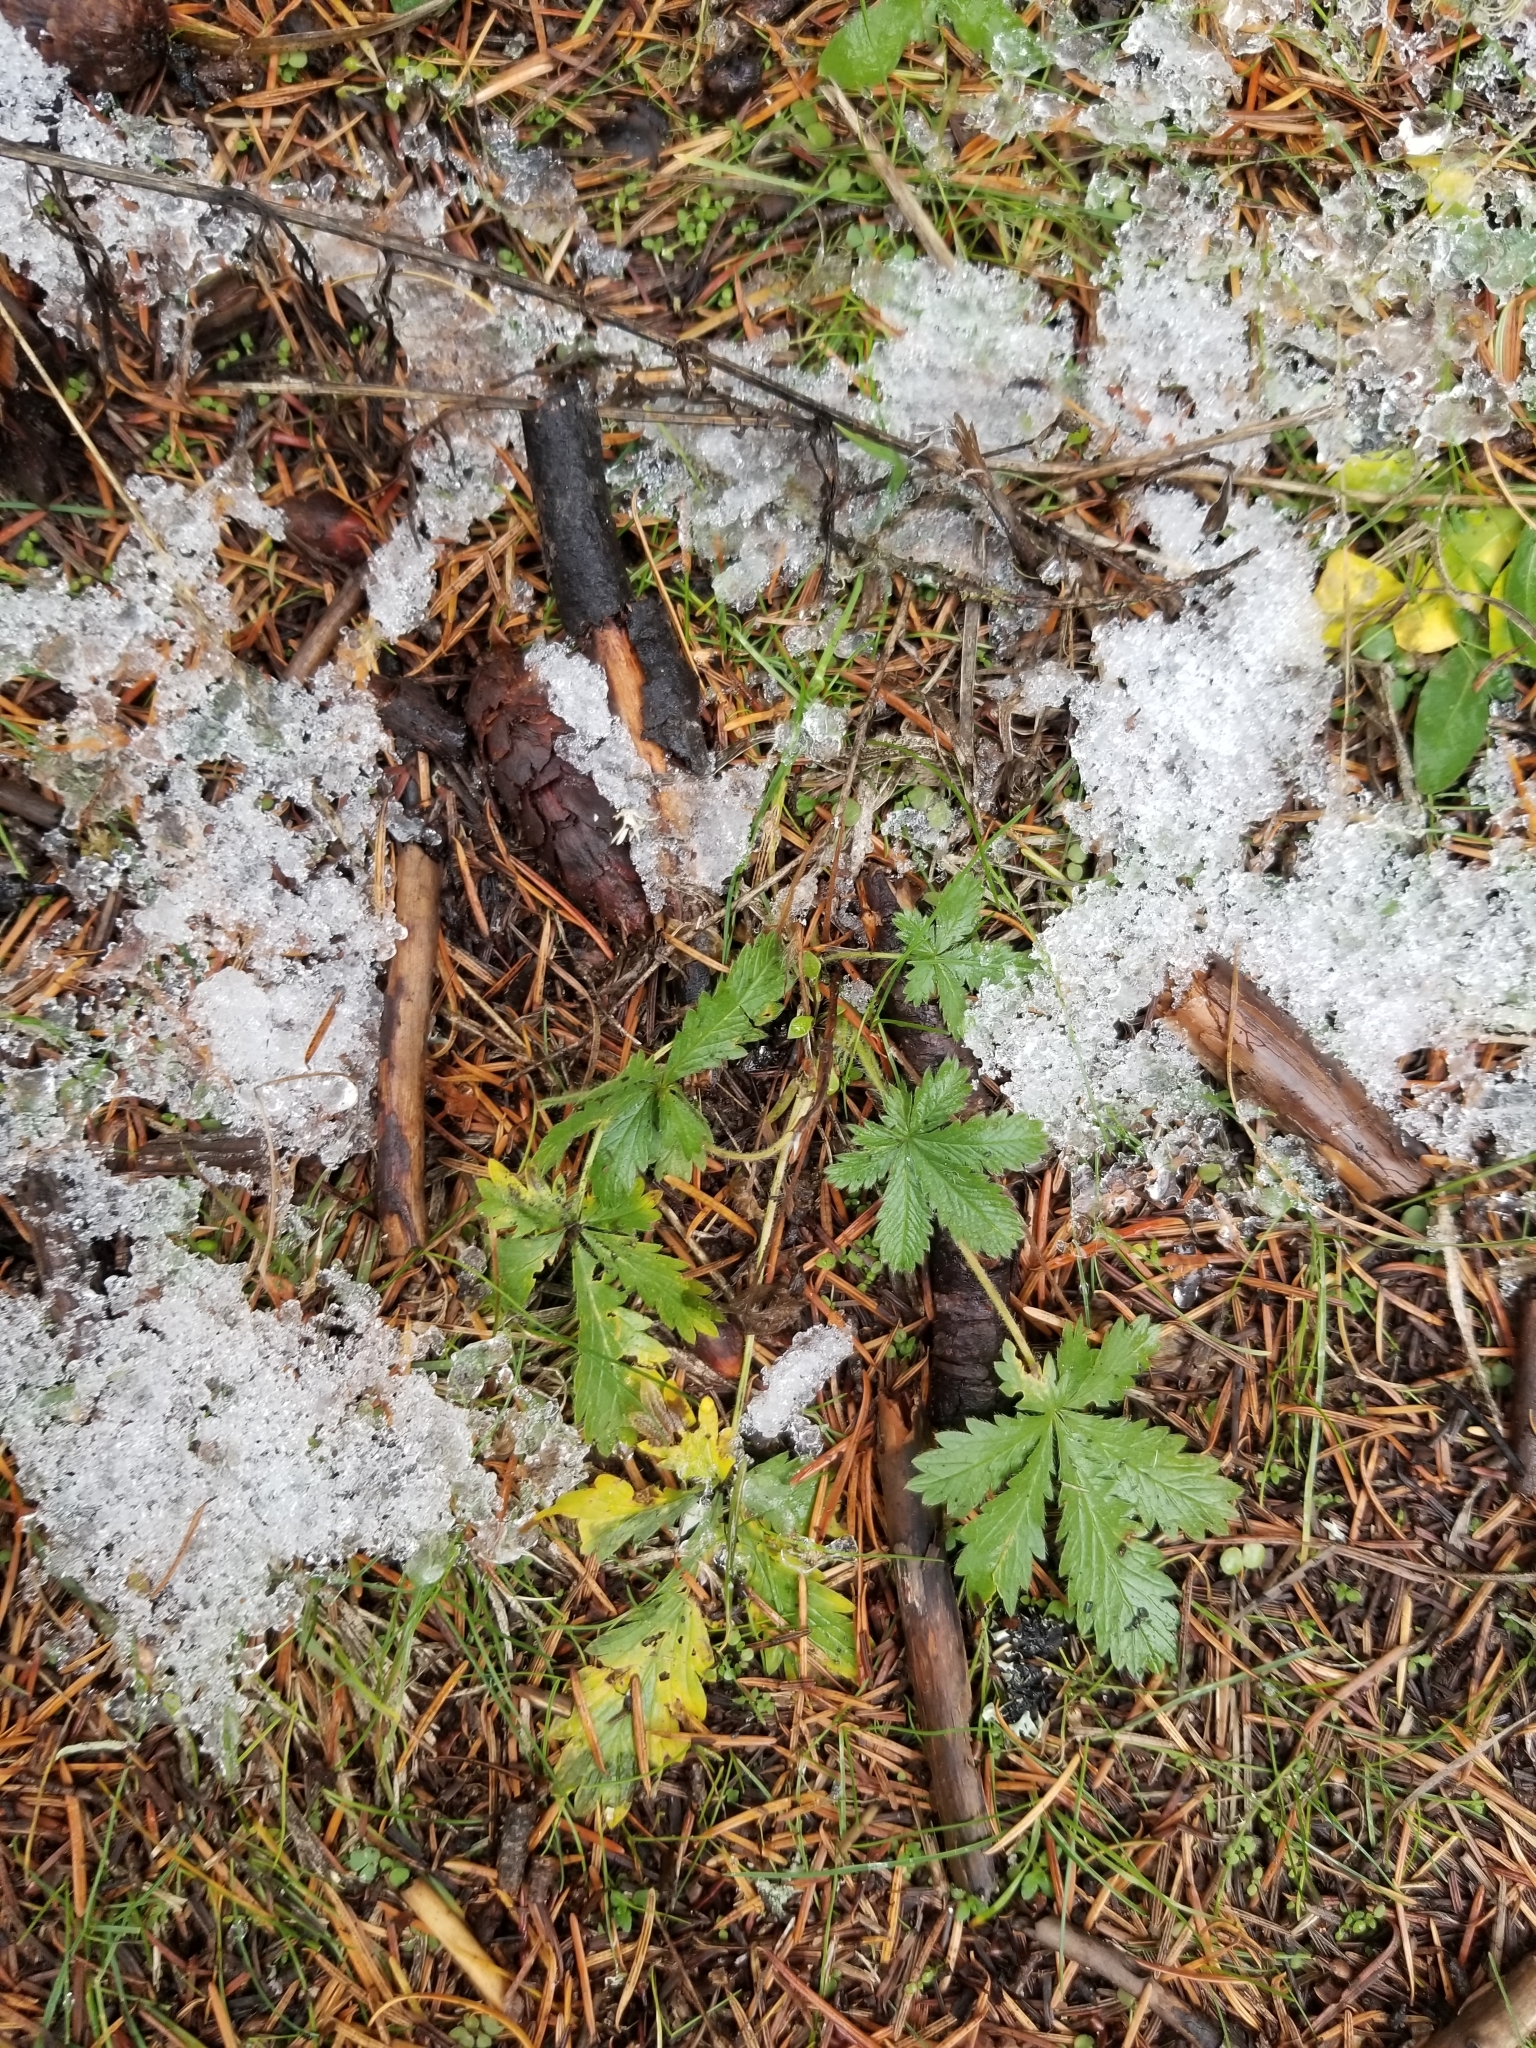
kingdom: Plantae
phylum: Tracheophyta
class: Magnoliopsida
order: Rosales
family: Rosaceae
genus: Potentilla
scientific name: Potentilla recta
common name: Sulphur cinquefoil
